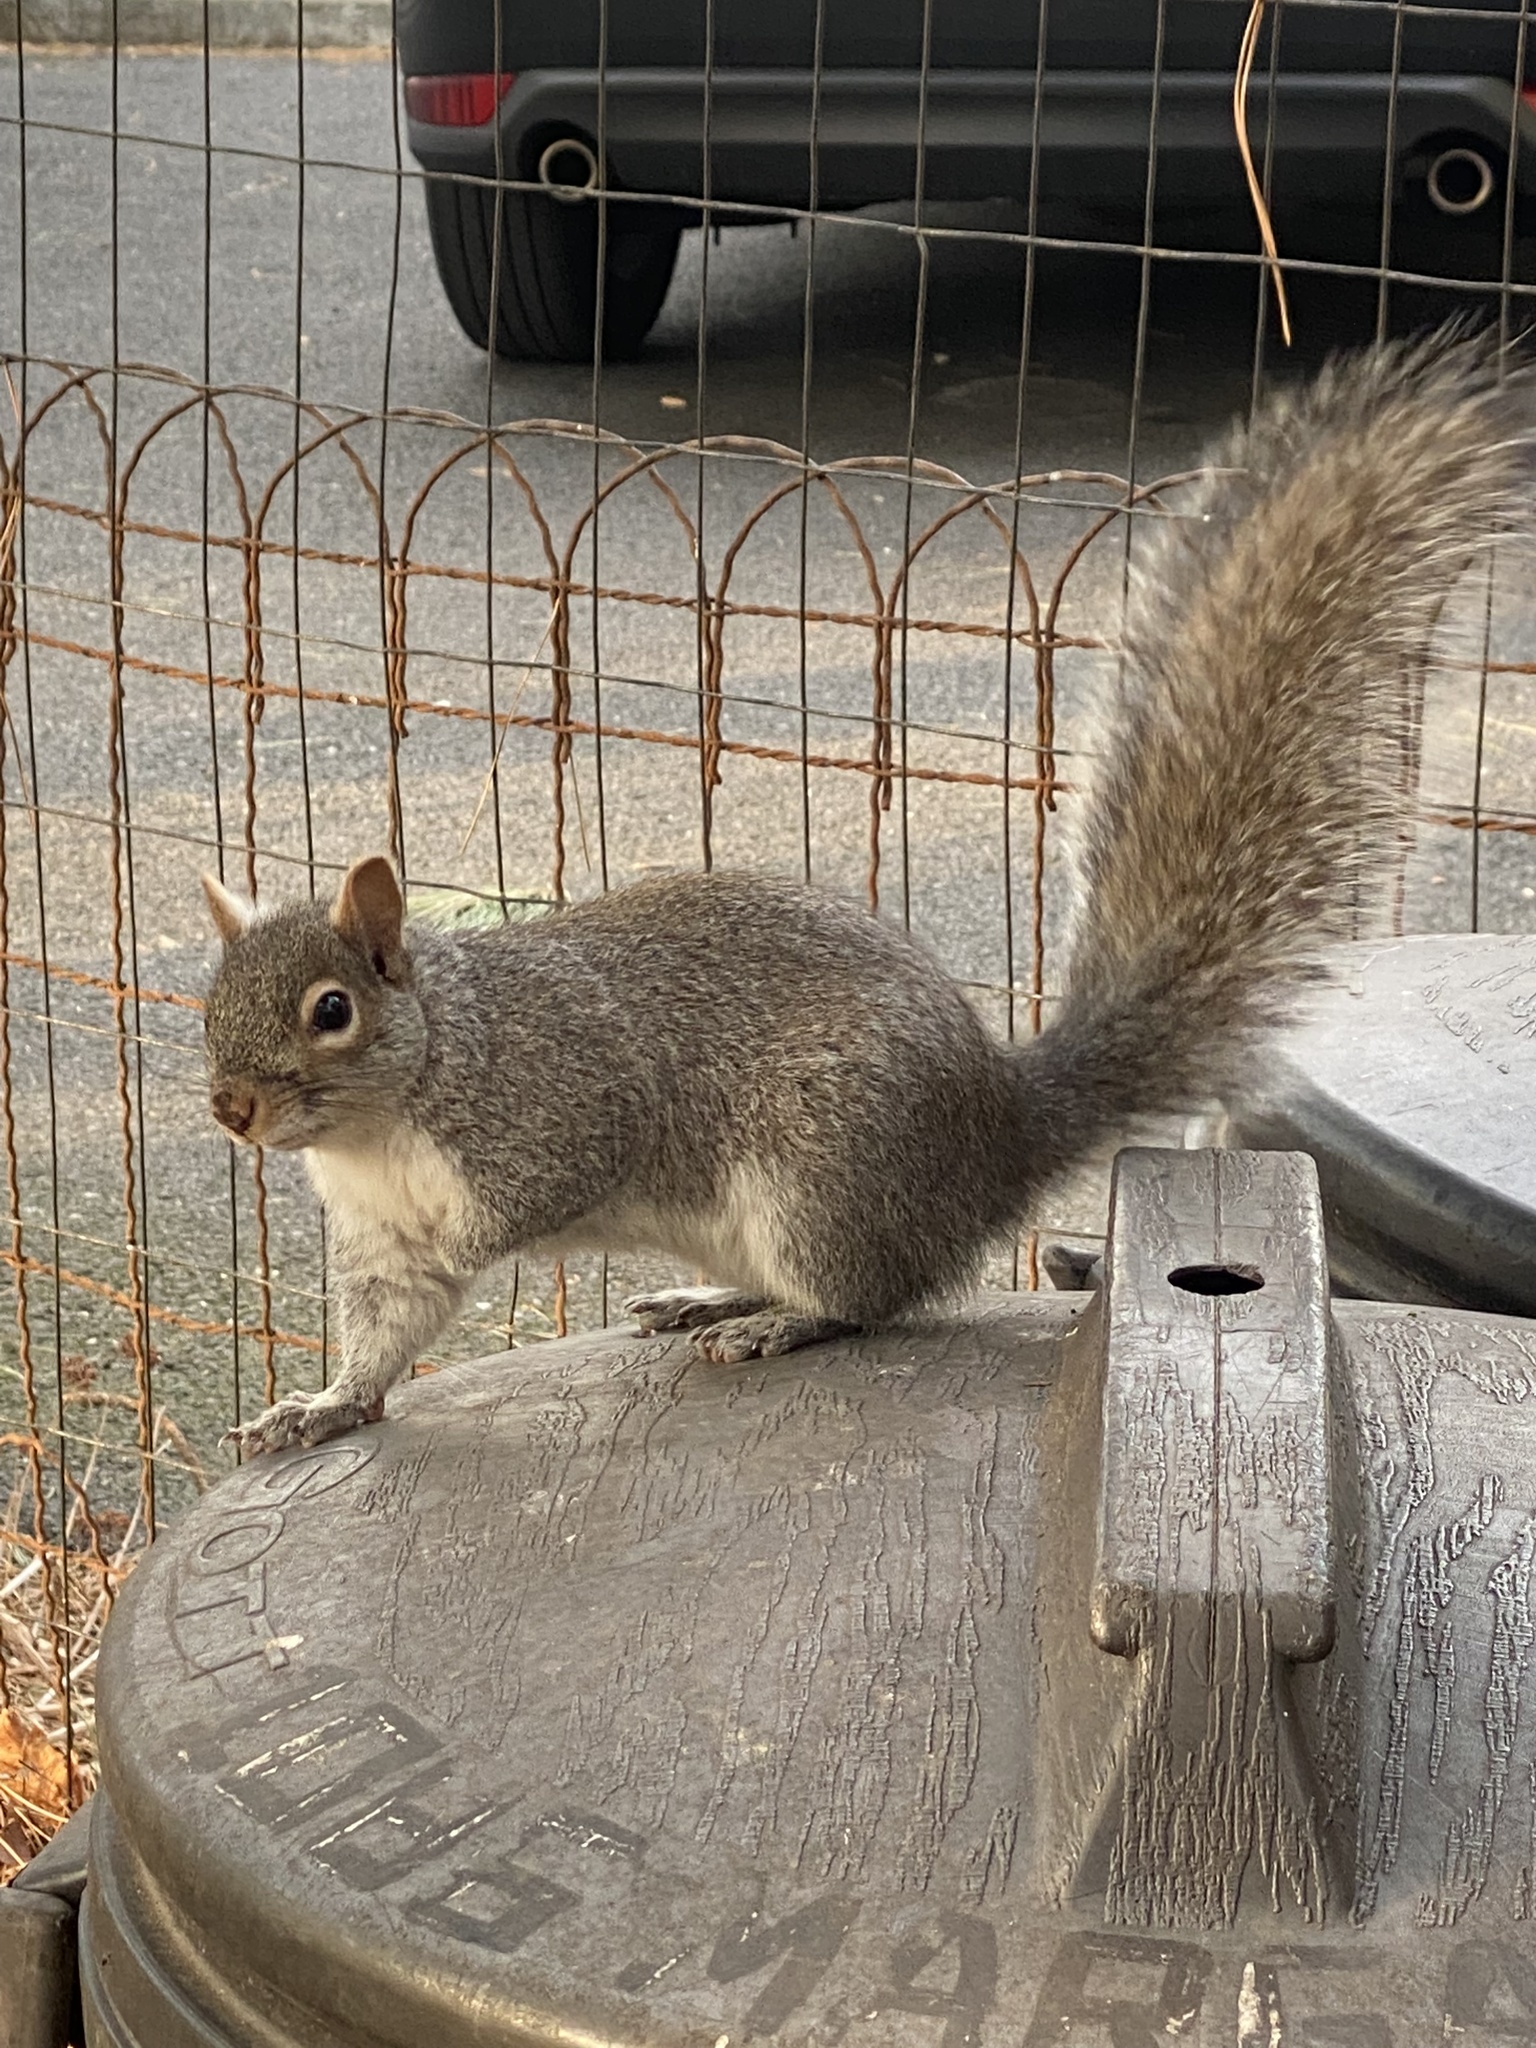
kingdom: Animalia
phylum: Chordata
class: Mammalia
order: Rodentia
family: Sciuridae
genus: Sciurus
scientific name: Sciurus carolinensis
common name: Eastern gray squirrel
